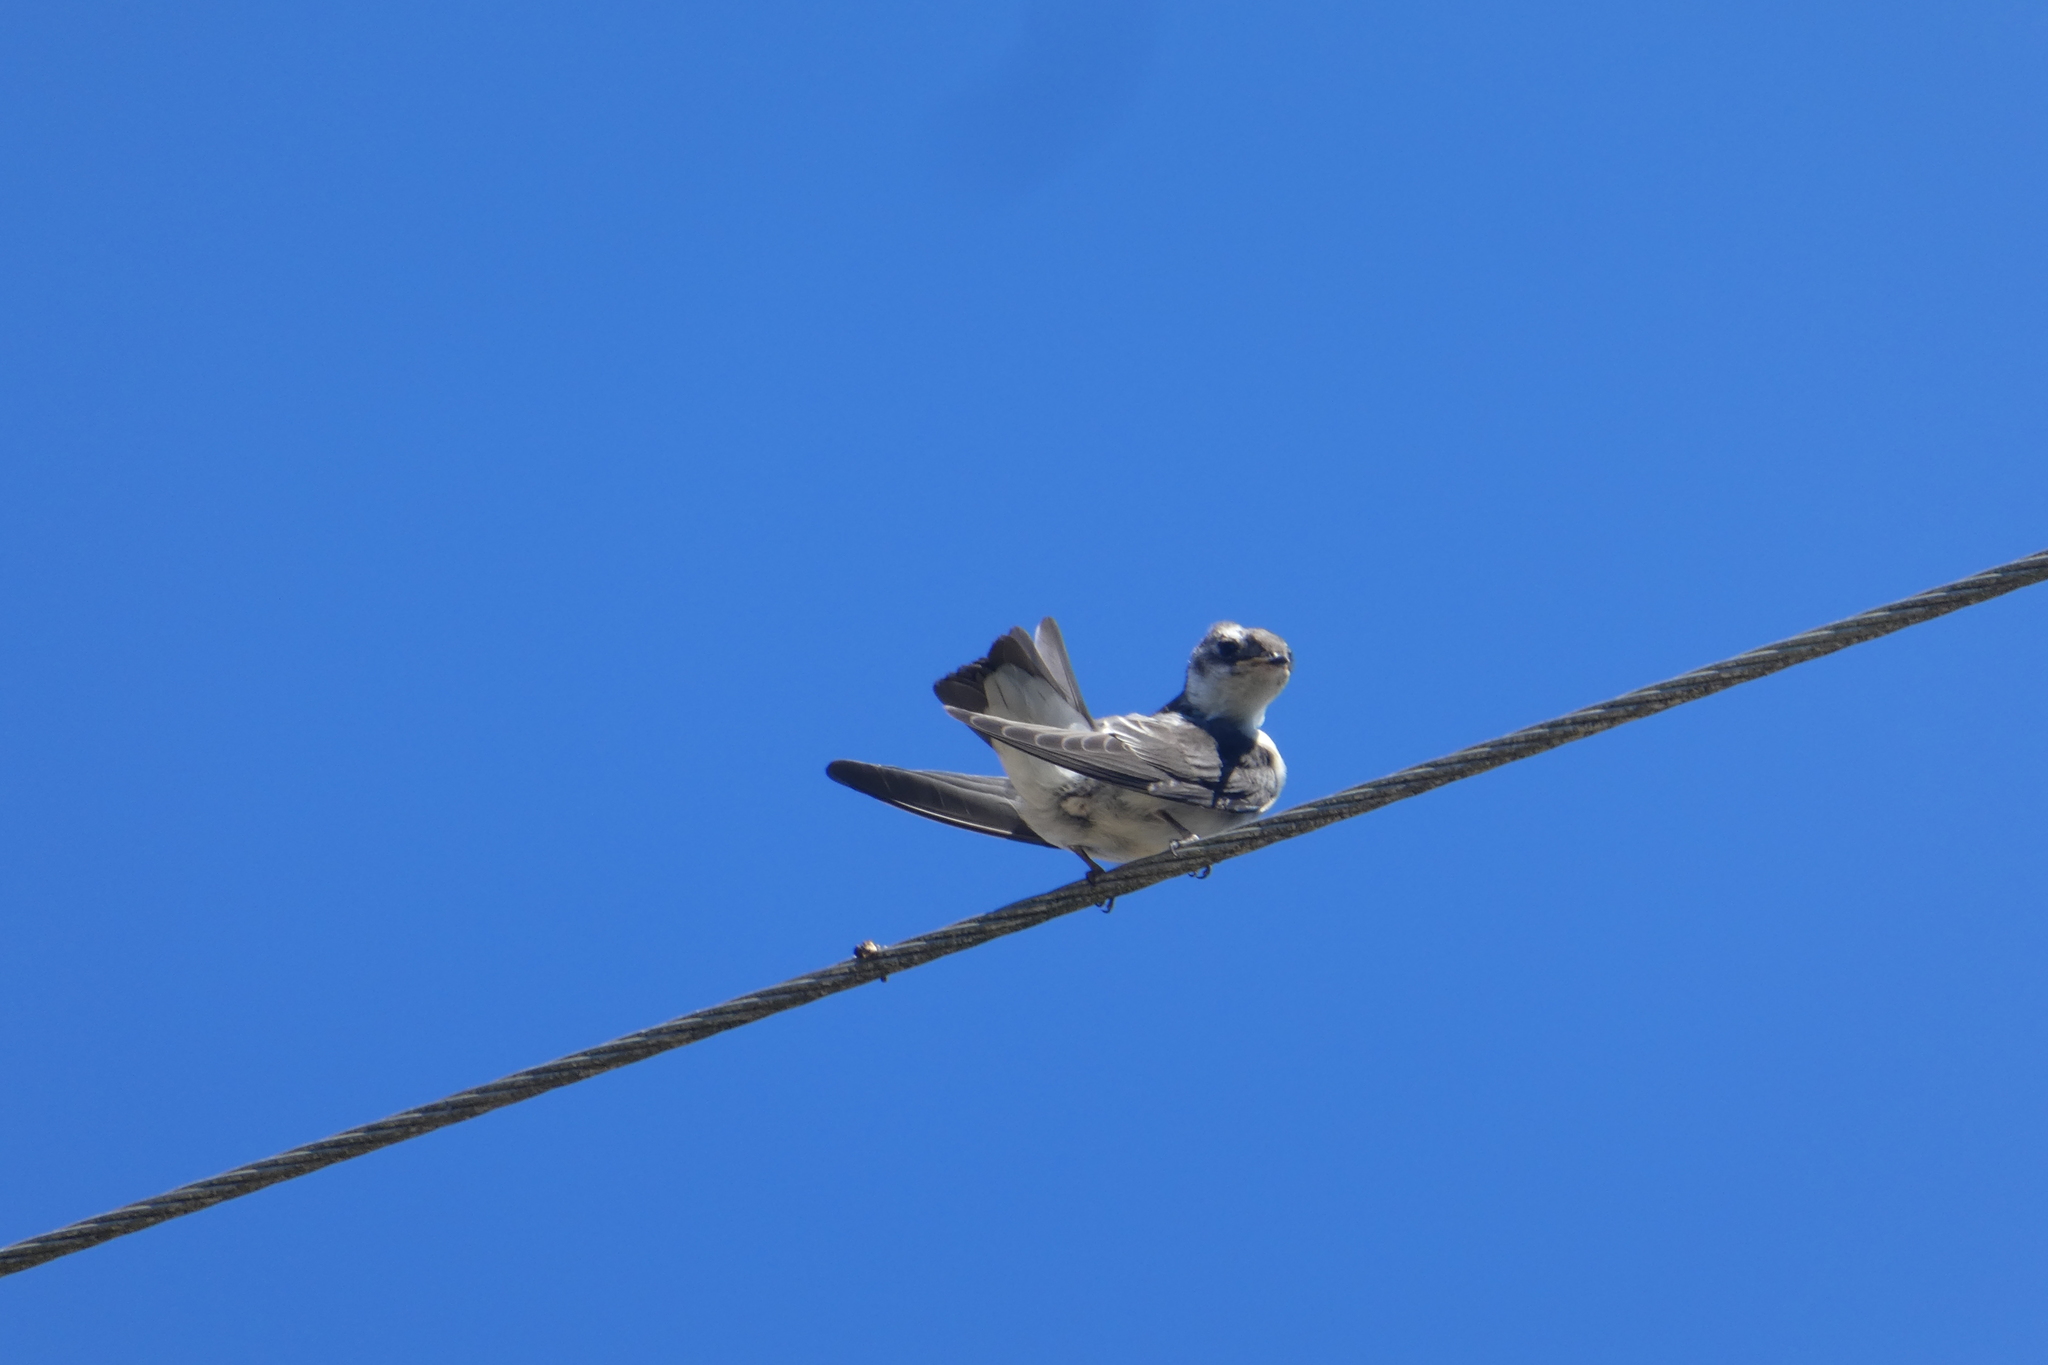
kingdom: Animalia
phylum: Chordata
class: Aves
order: Passeriformes
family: Hirundinidae
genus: Tachycineta
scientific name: Tachycineta thalassina
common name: Violet-green swallow
